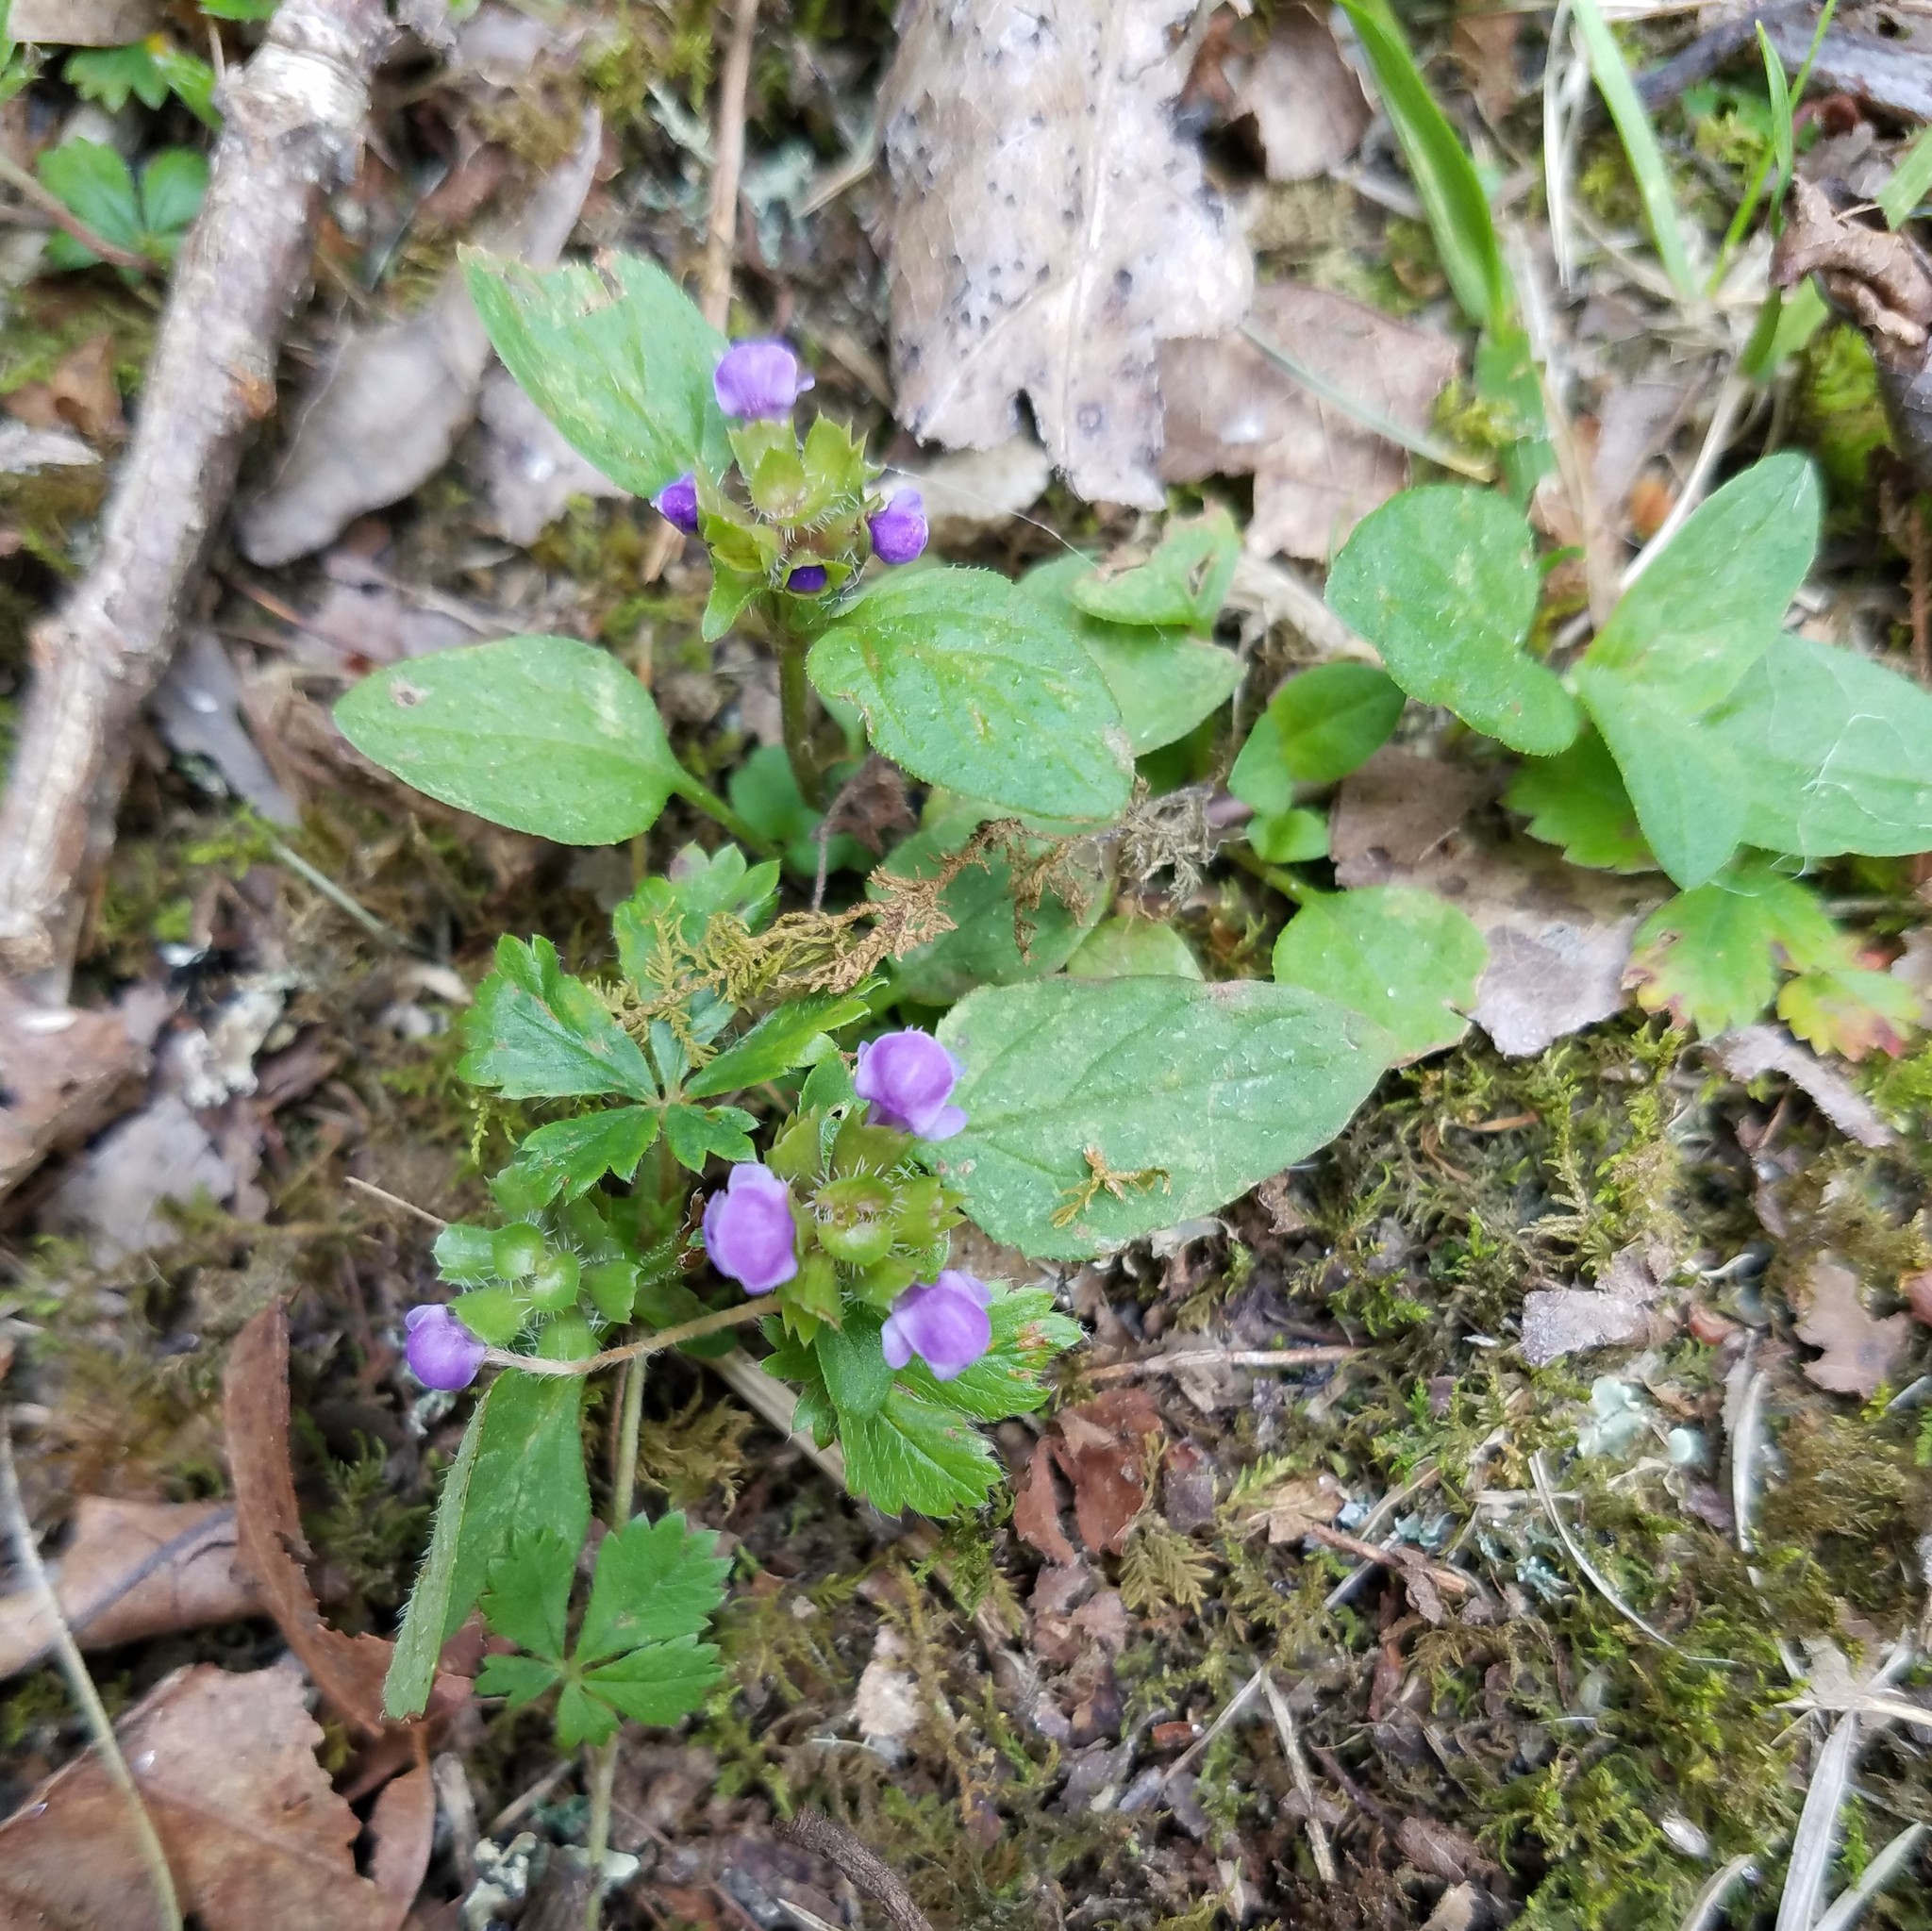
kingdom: Plantae
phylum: Tracheophyta
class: Magnoliopsida
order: Lamiales
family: Lamiaceae
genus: Prunella
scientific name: Prunella vulgaris
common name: Heal-all
